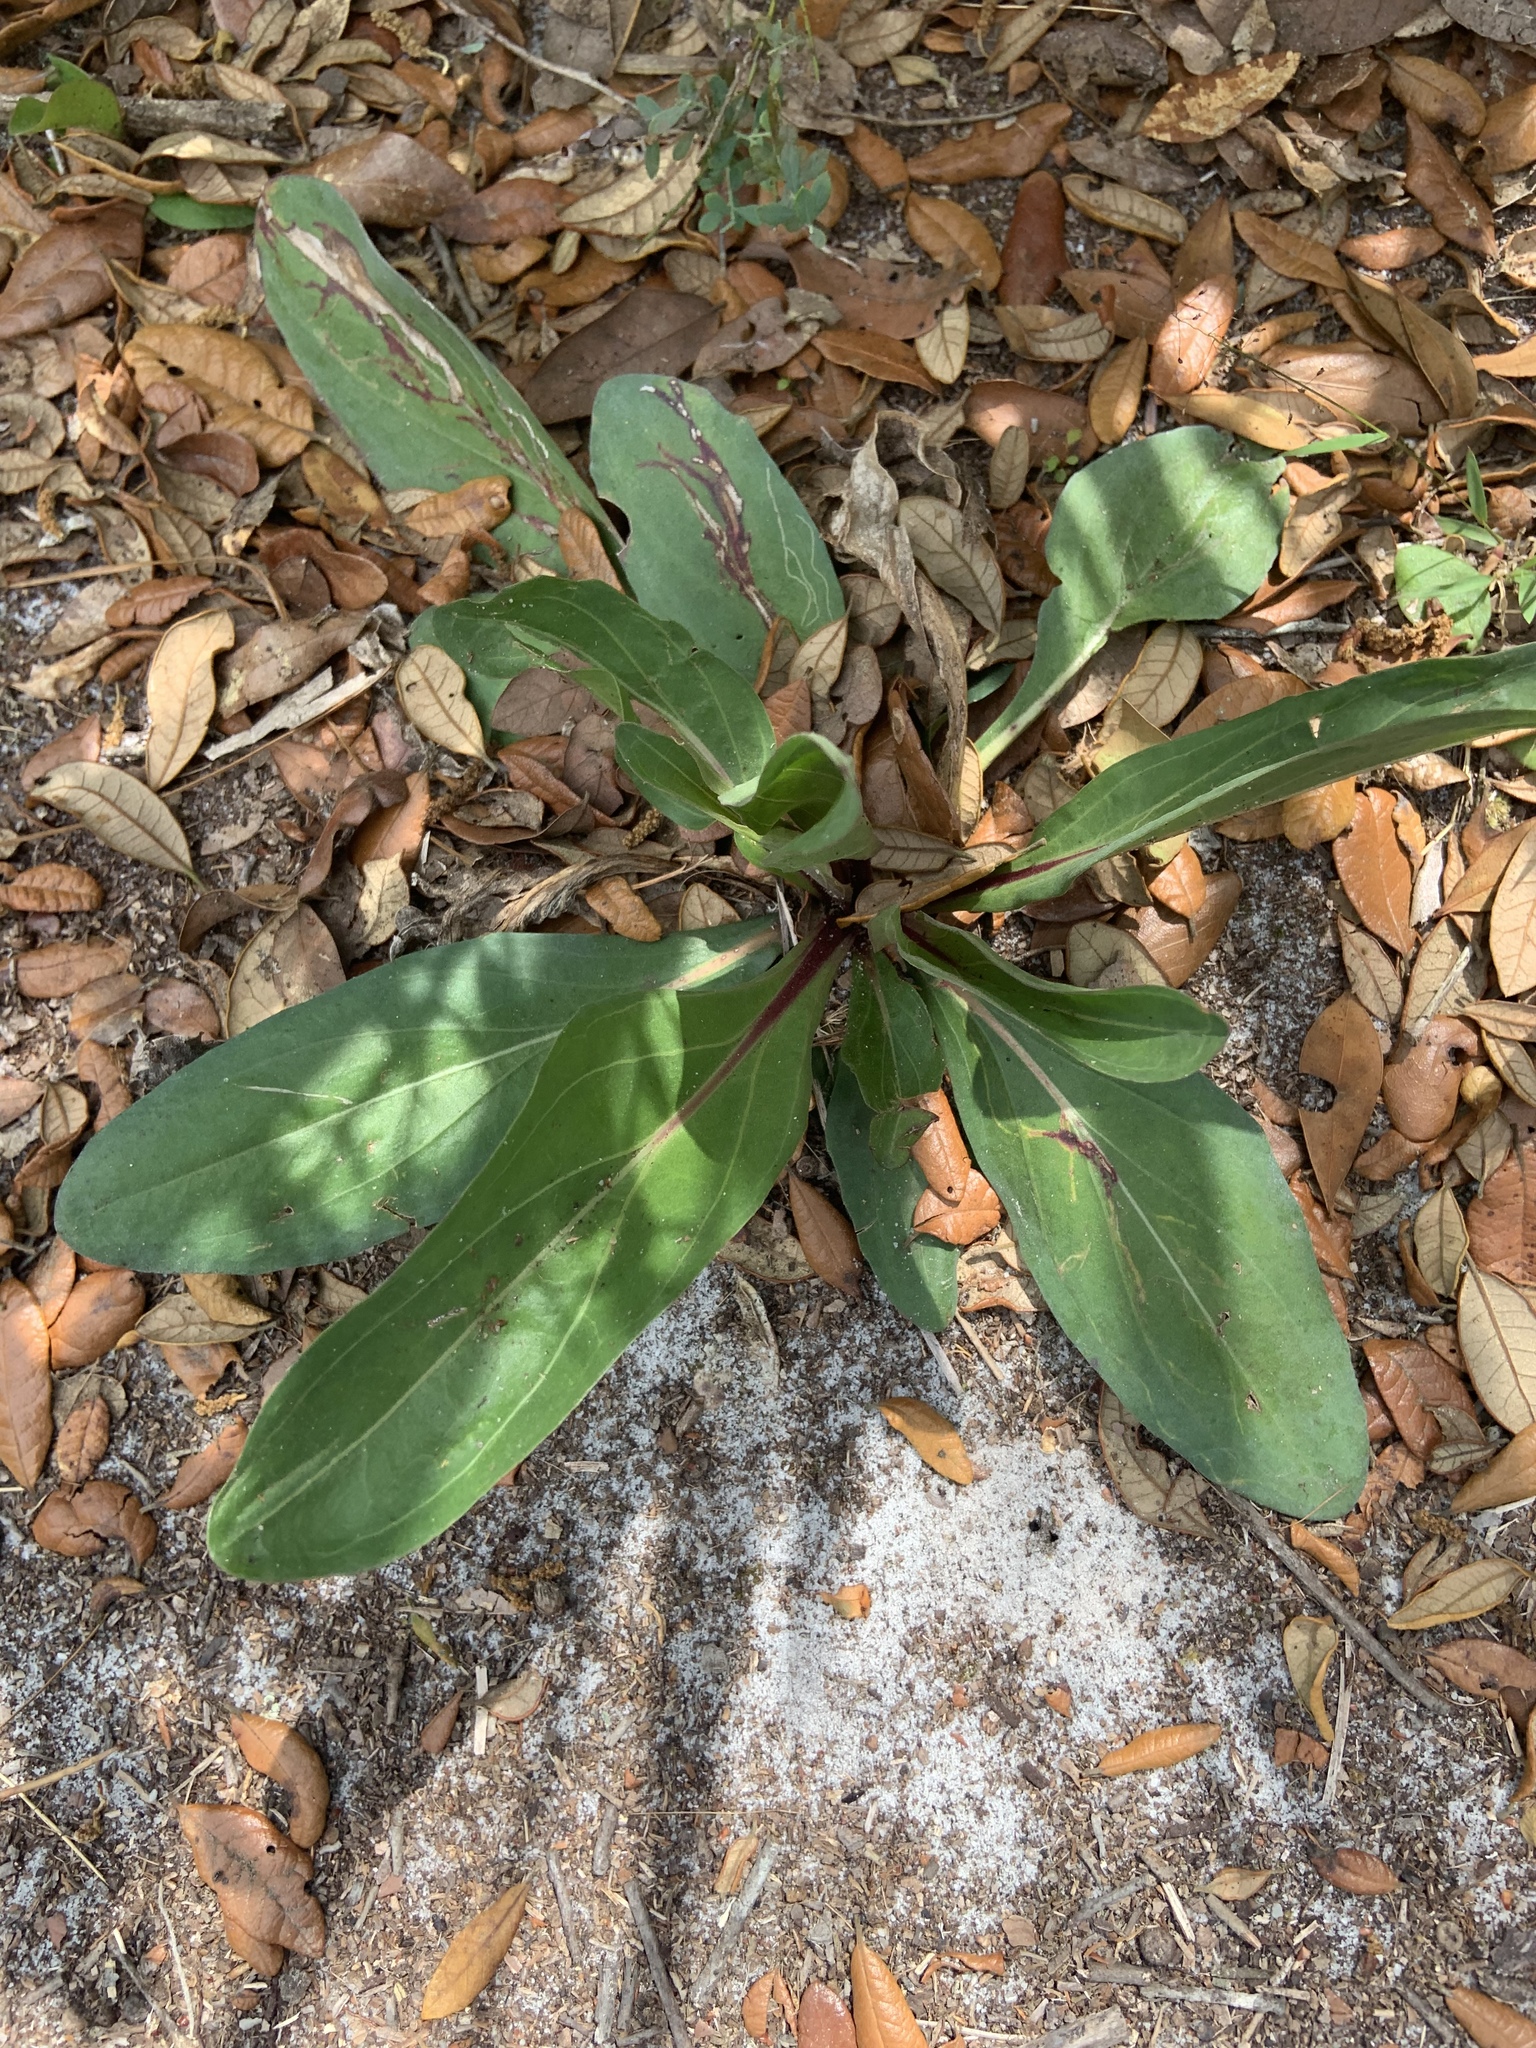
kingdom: Plantae
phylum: Tracheophyta
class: Magnoliopsida
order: Asterales
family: Asteraceae
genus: Carphephorus
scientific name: Carphephorus odoratissimus
